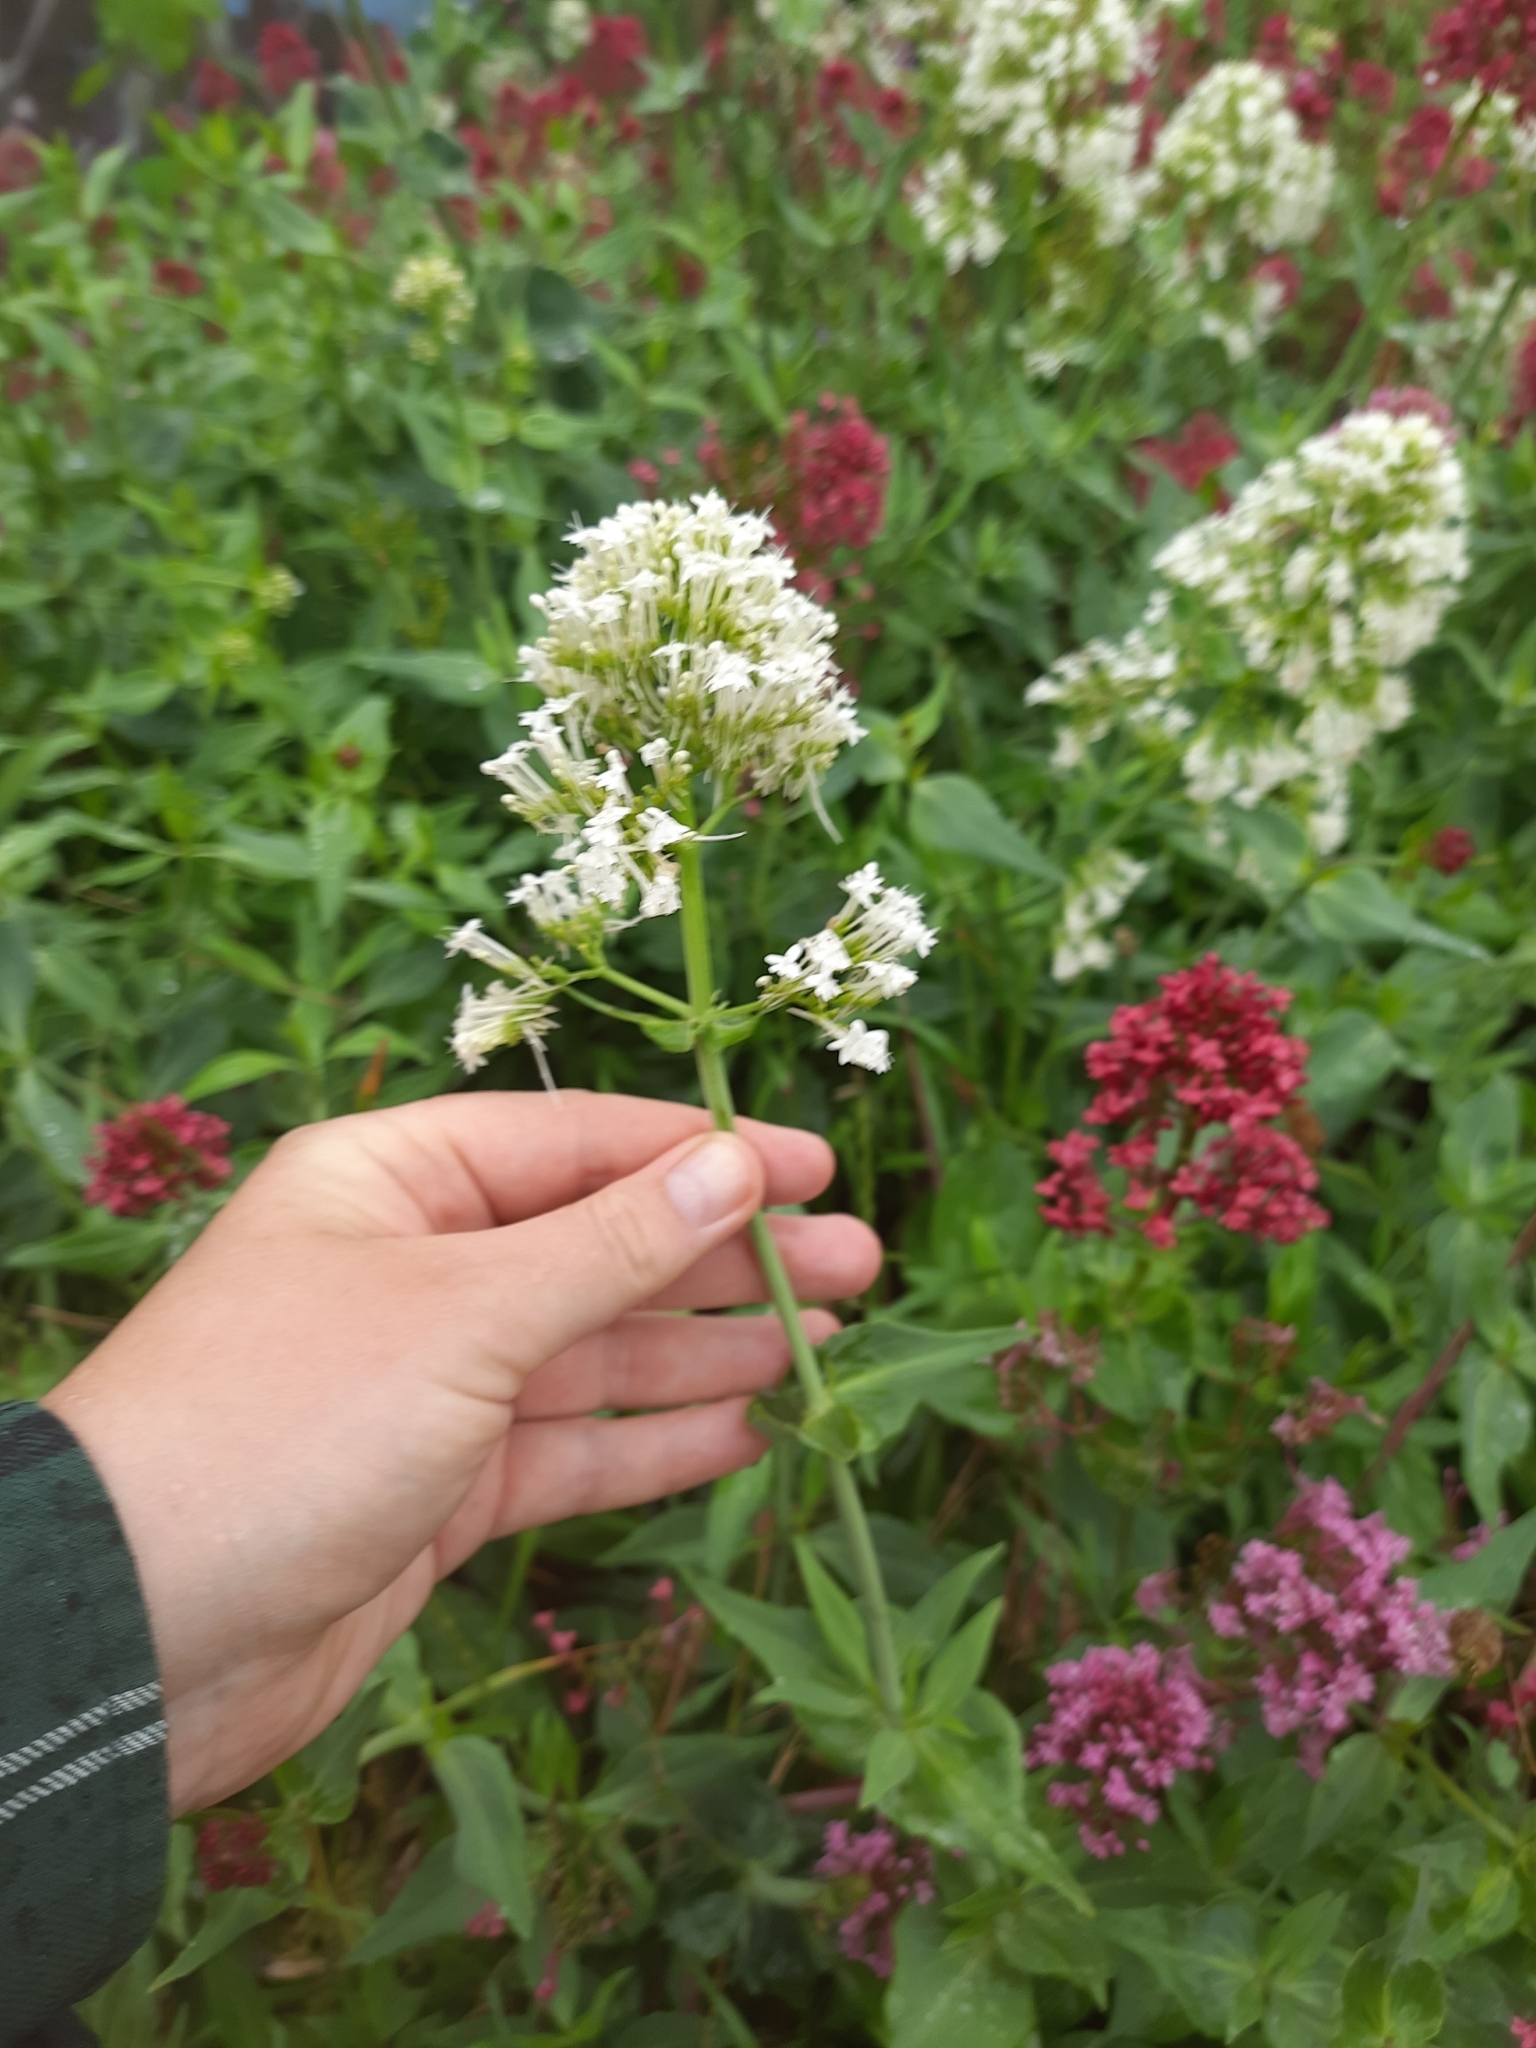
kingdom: Plantae
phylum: Tracheophyta
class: Magnoliopsida
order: Dipsacales
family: Caprifoliaceae
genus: Centranthus
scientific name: Centranthus ruber
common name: Red valerian
